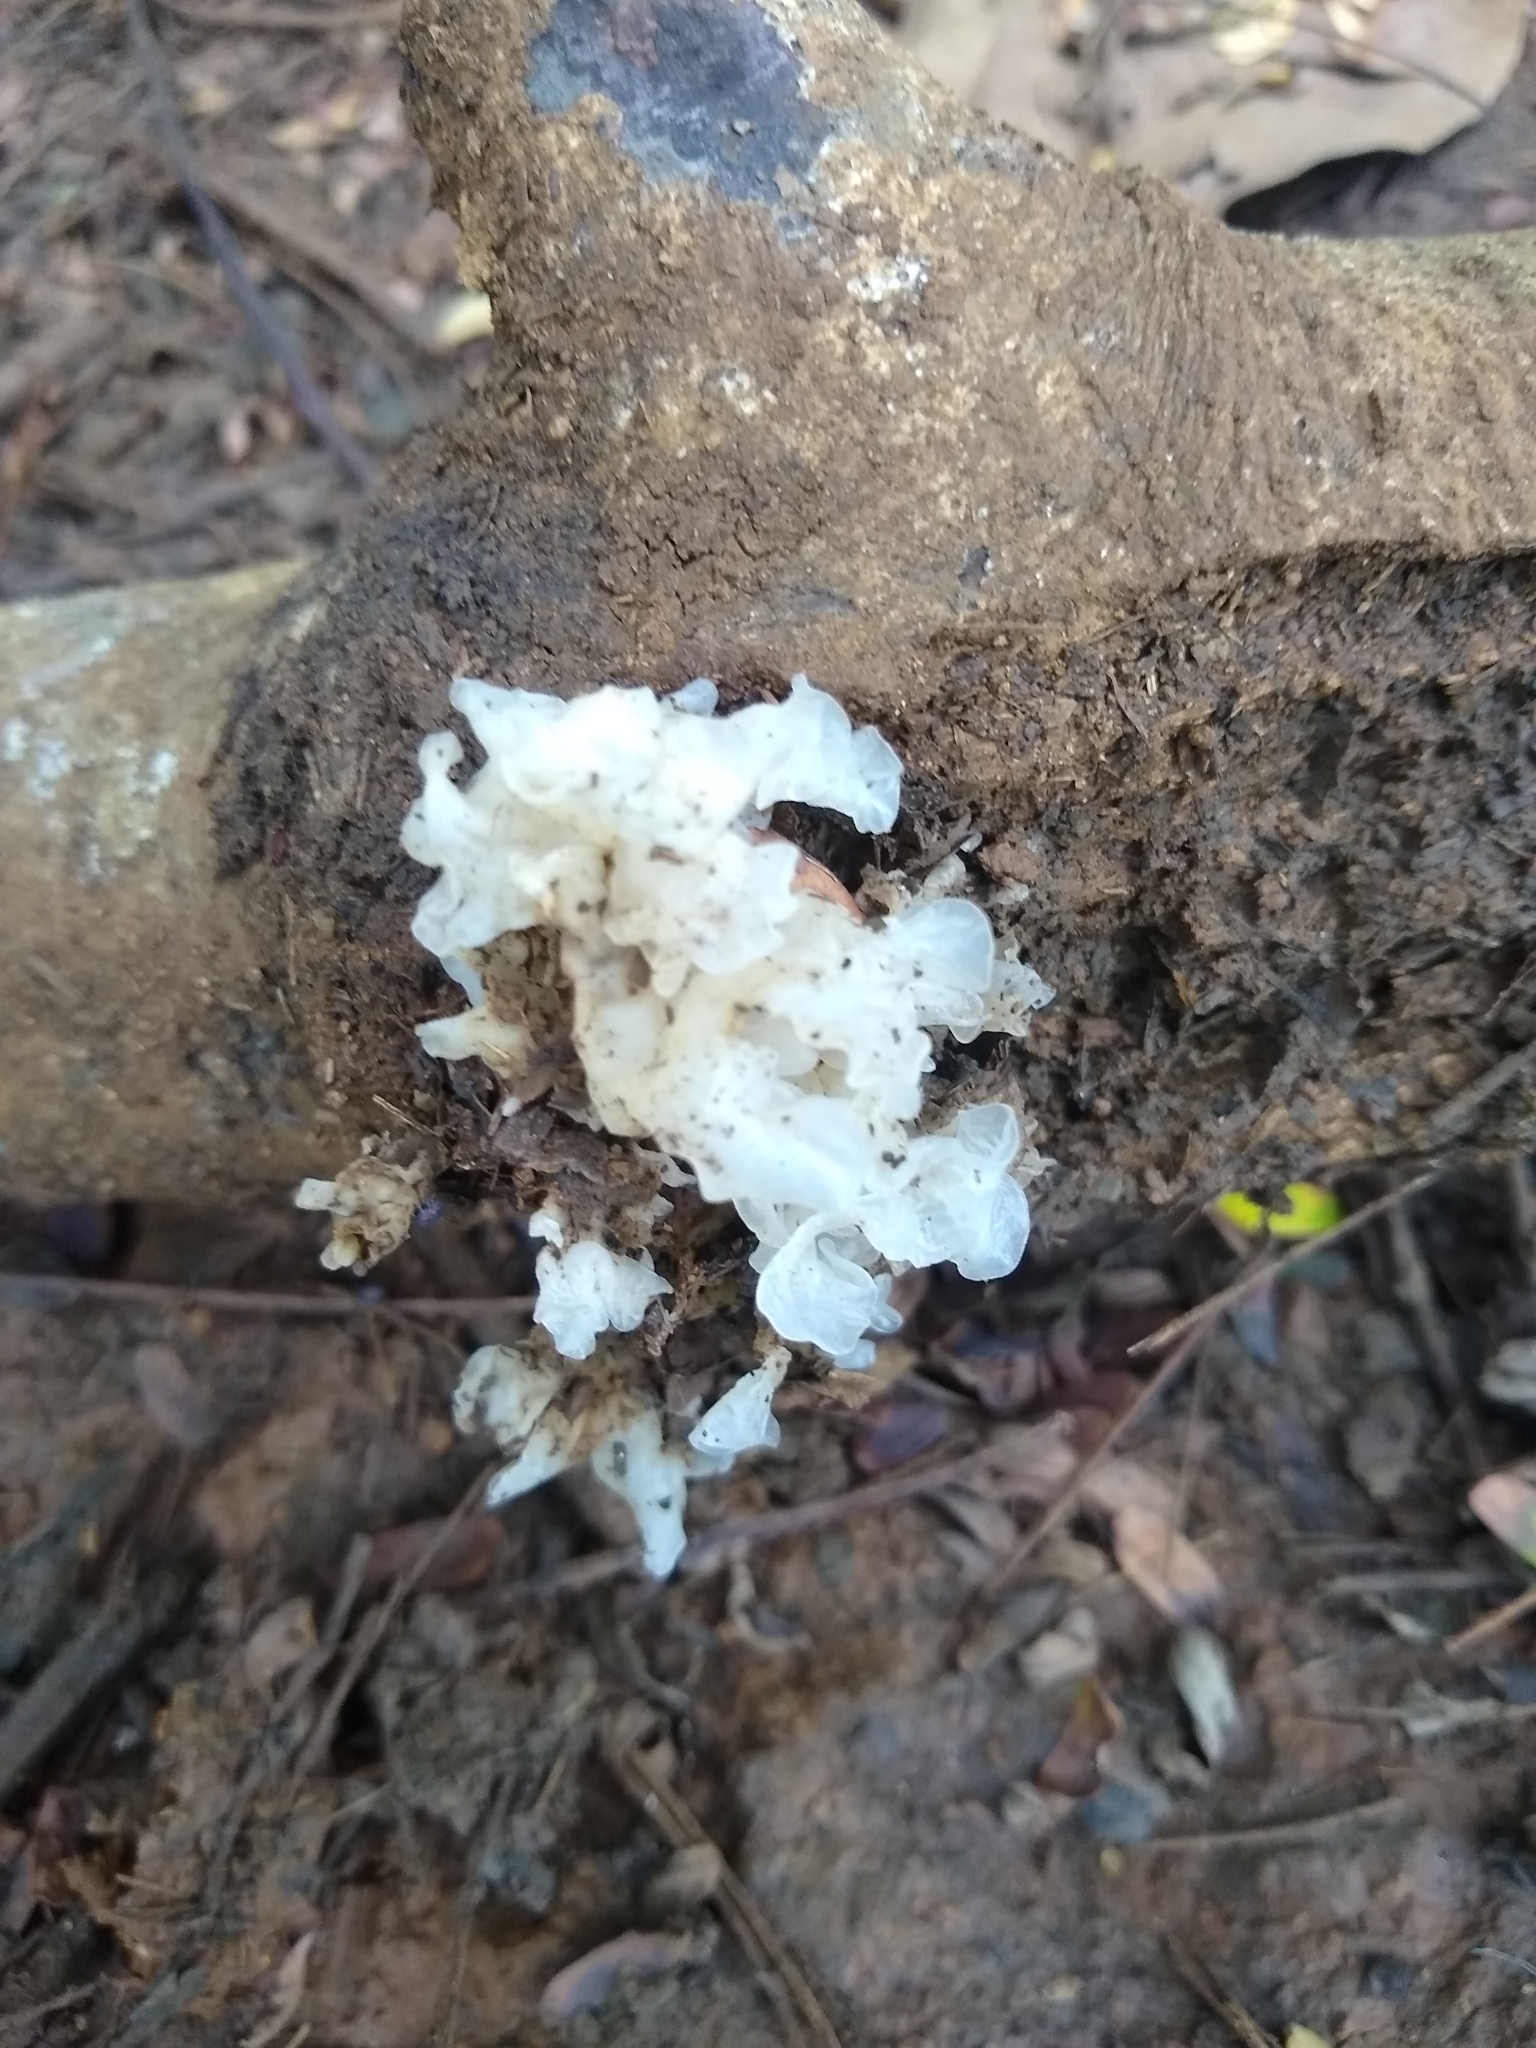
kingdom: Fungi
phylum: Basidiomycota
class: Tremellomycetes
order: Tremellales
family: Tremellaceae
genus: Tremella
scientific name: Tremella fuciformis
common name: Snow fungus
